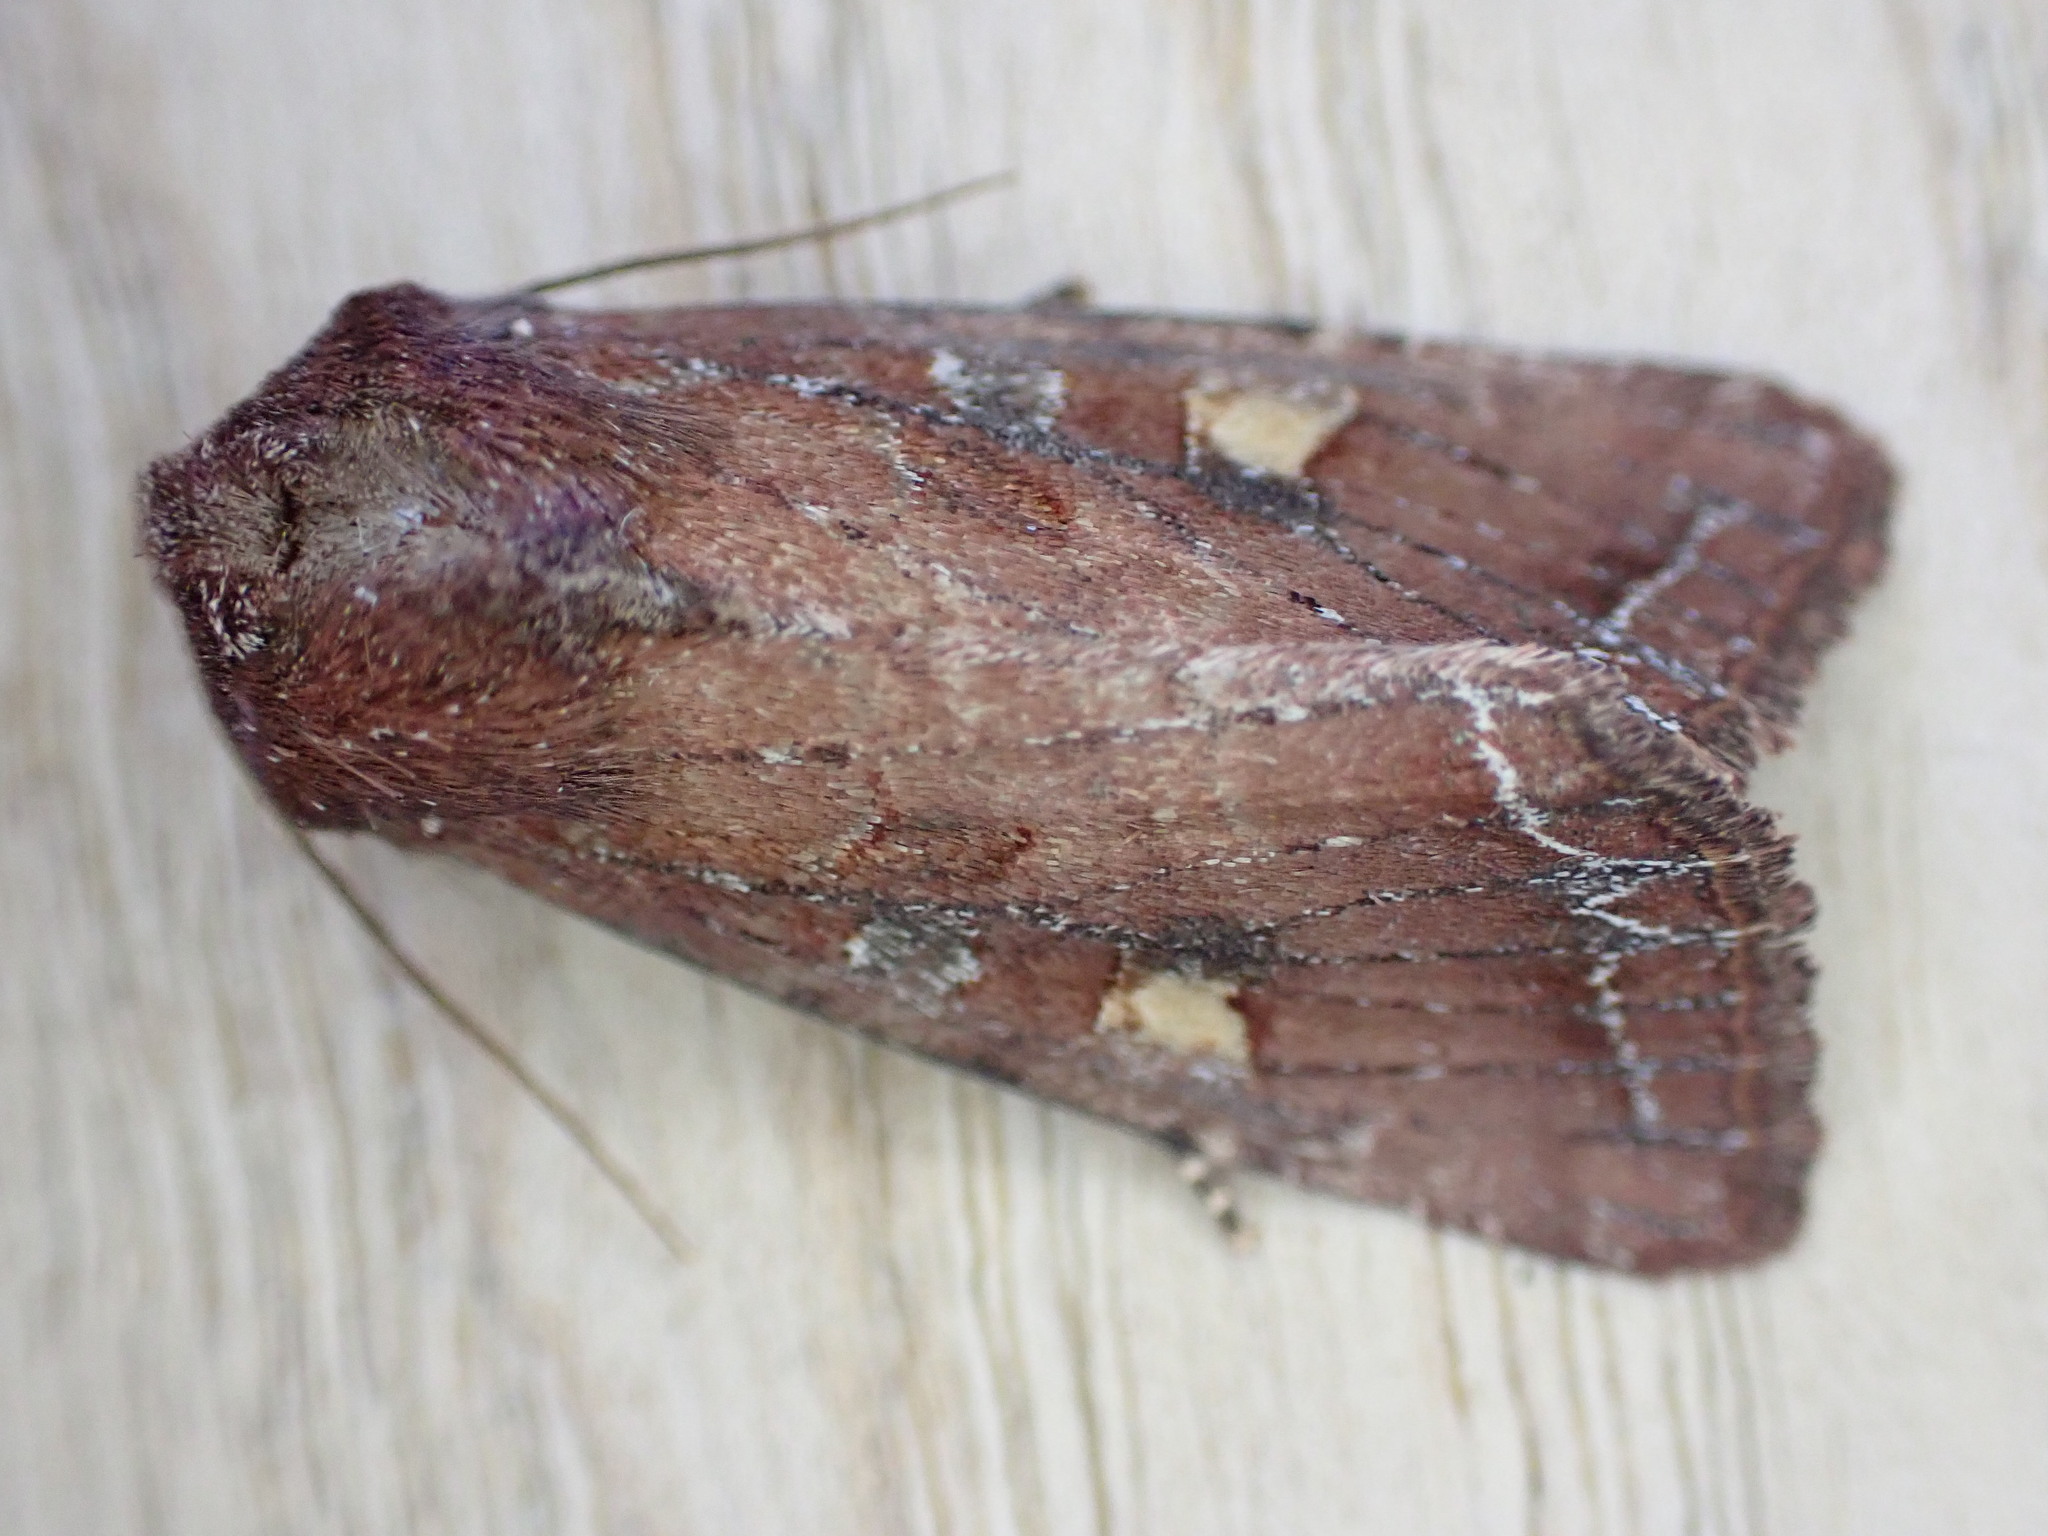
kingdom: Animalia
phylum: Arthropoda
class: Insecta
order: Lepidoptera
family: Noctuidae
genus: Lacanobia
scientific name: Lacanobia oleracea
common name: Bright-line brown-eye
